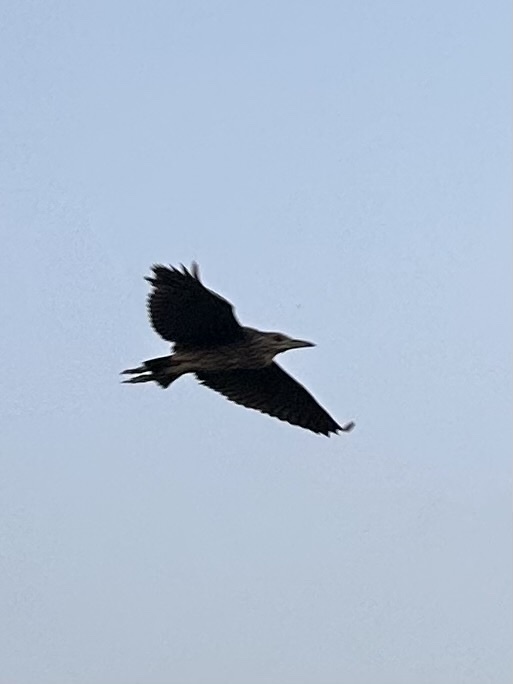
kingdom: Animalia
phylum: Chordata
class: Aves
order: Pelecaniformes
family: Ardeidae
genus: Nycticorax
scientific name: Nycticorax nycticorax
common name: Black-crowned night heron
